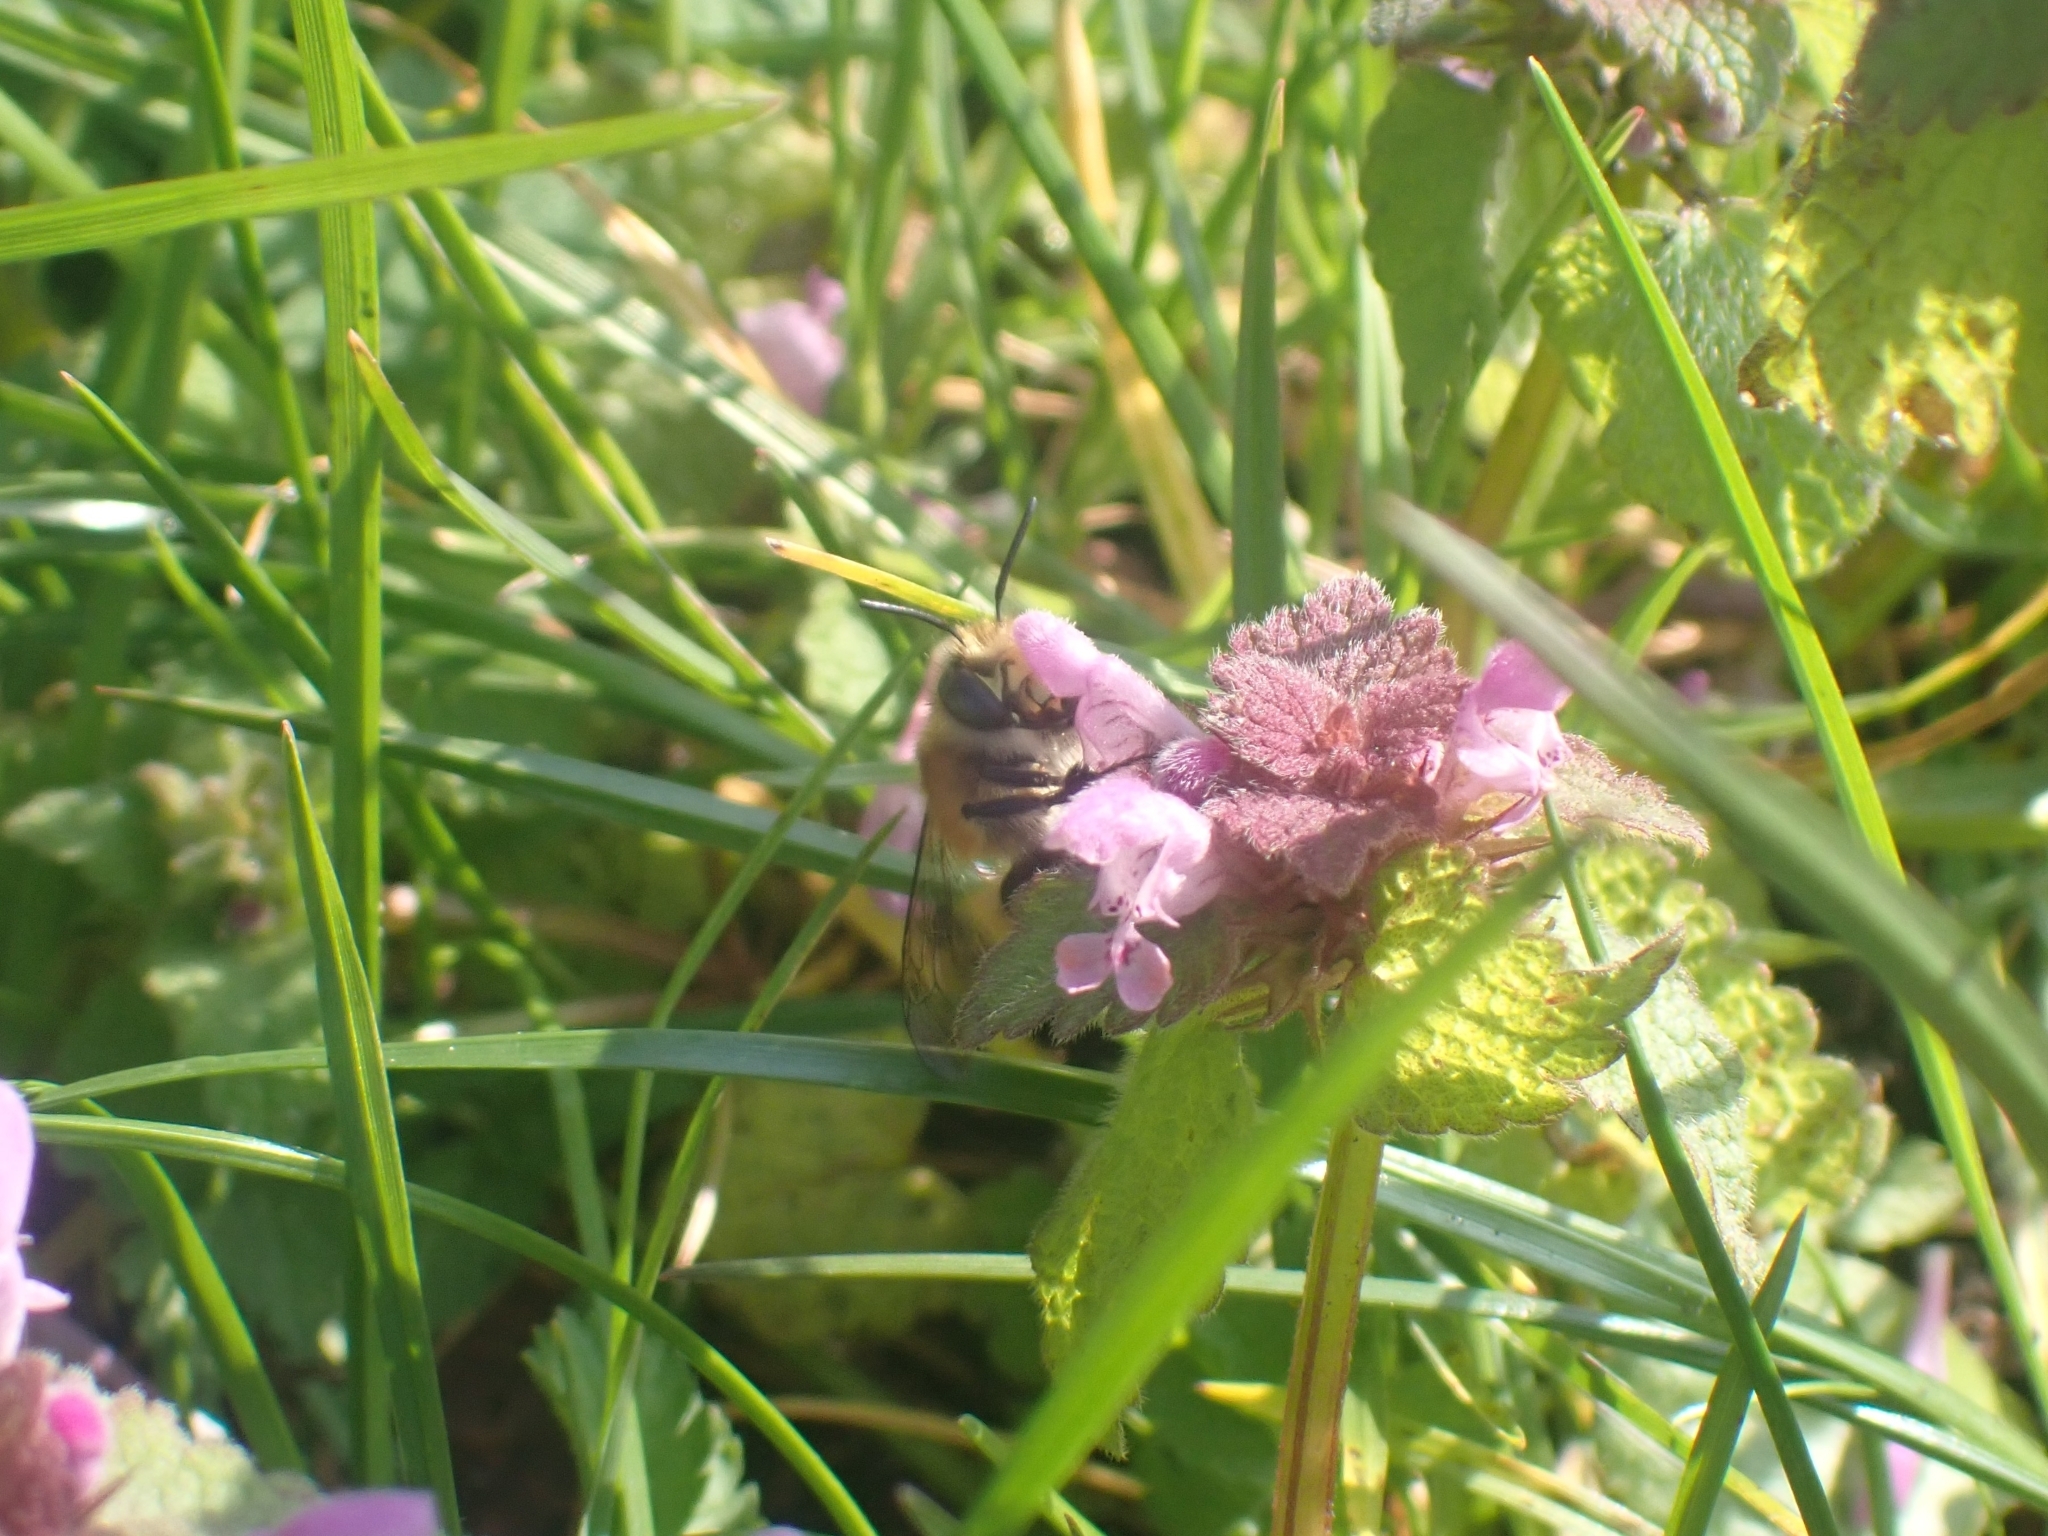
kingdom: Animalia
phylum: Arthropoda
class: Insecta
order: Hymenoptera
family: Apidae
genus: Anthophora
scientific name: Anthophora plumipes
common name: Hairy-footed flower bee
